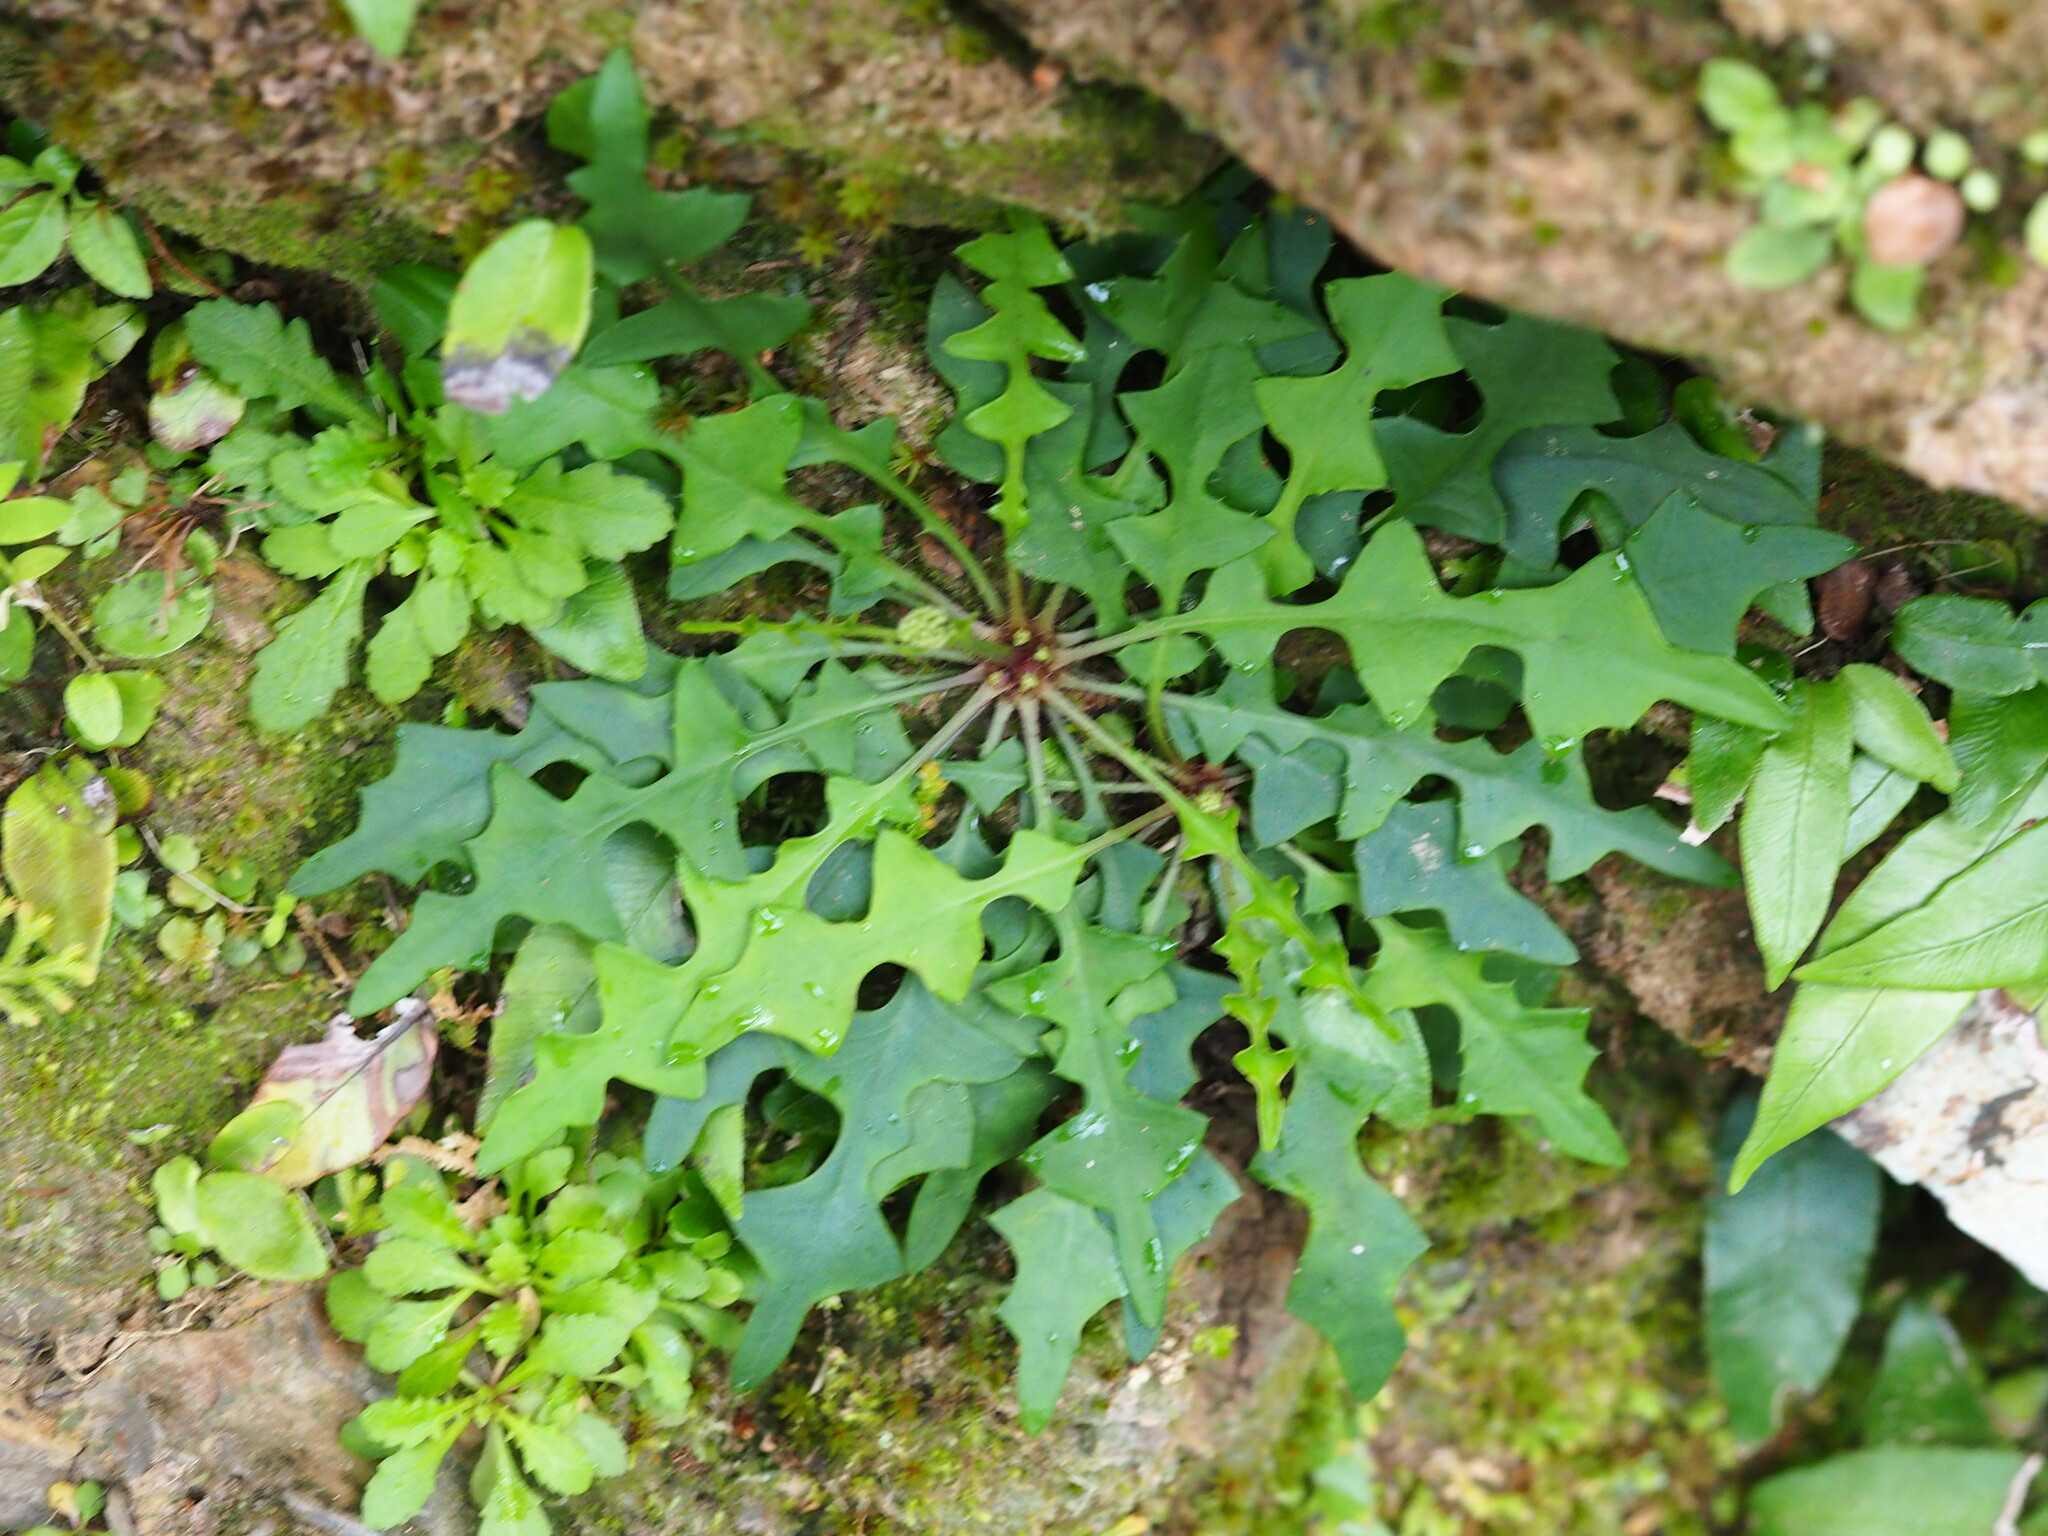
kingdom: Plantae
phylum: Tracheophyta
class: Magnoliopsida
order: Asterales
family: Asteraceae
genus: Ixeridium
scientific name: Ixeridium laevigatum
